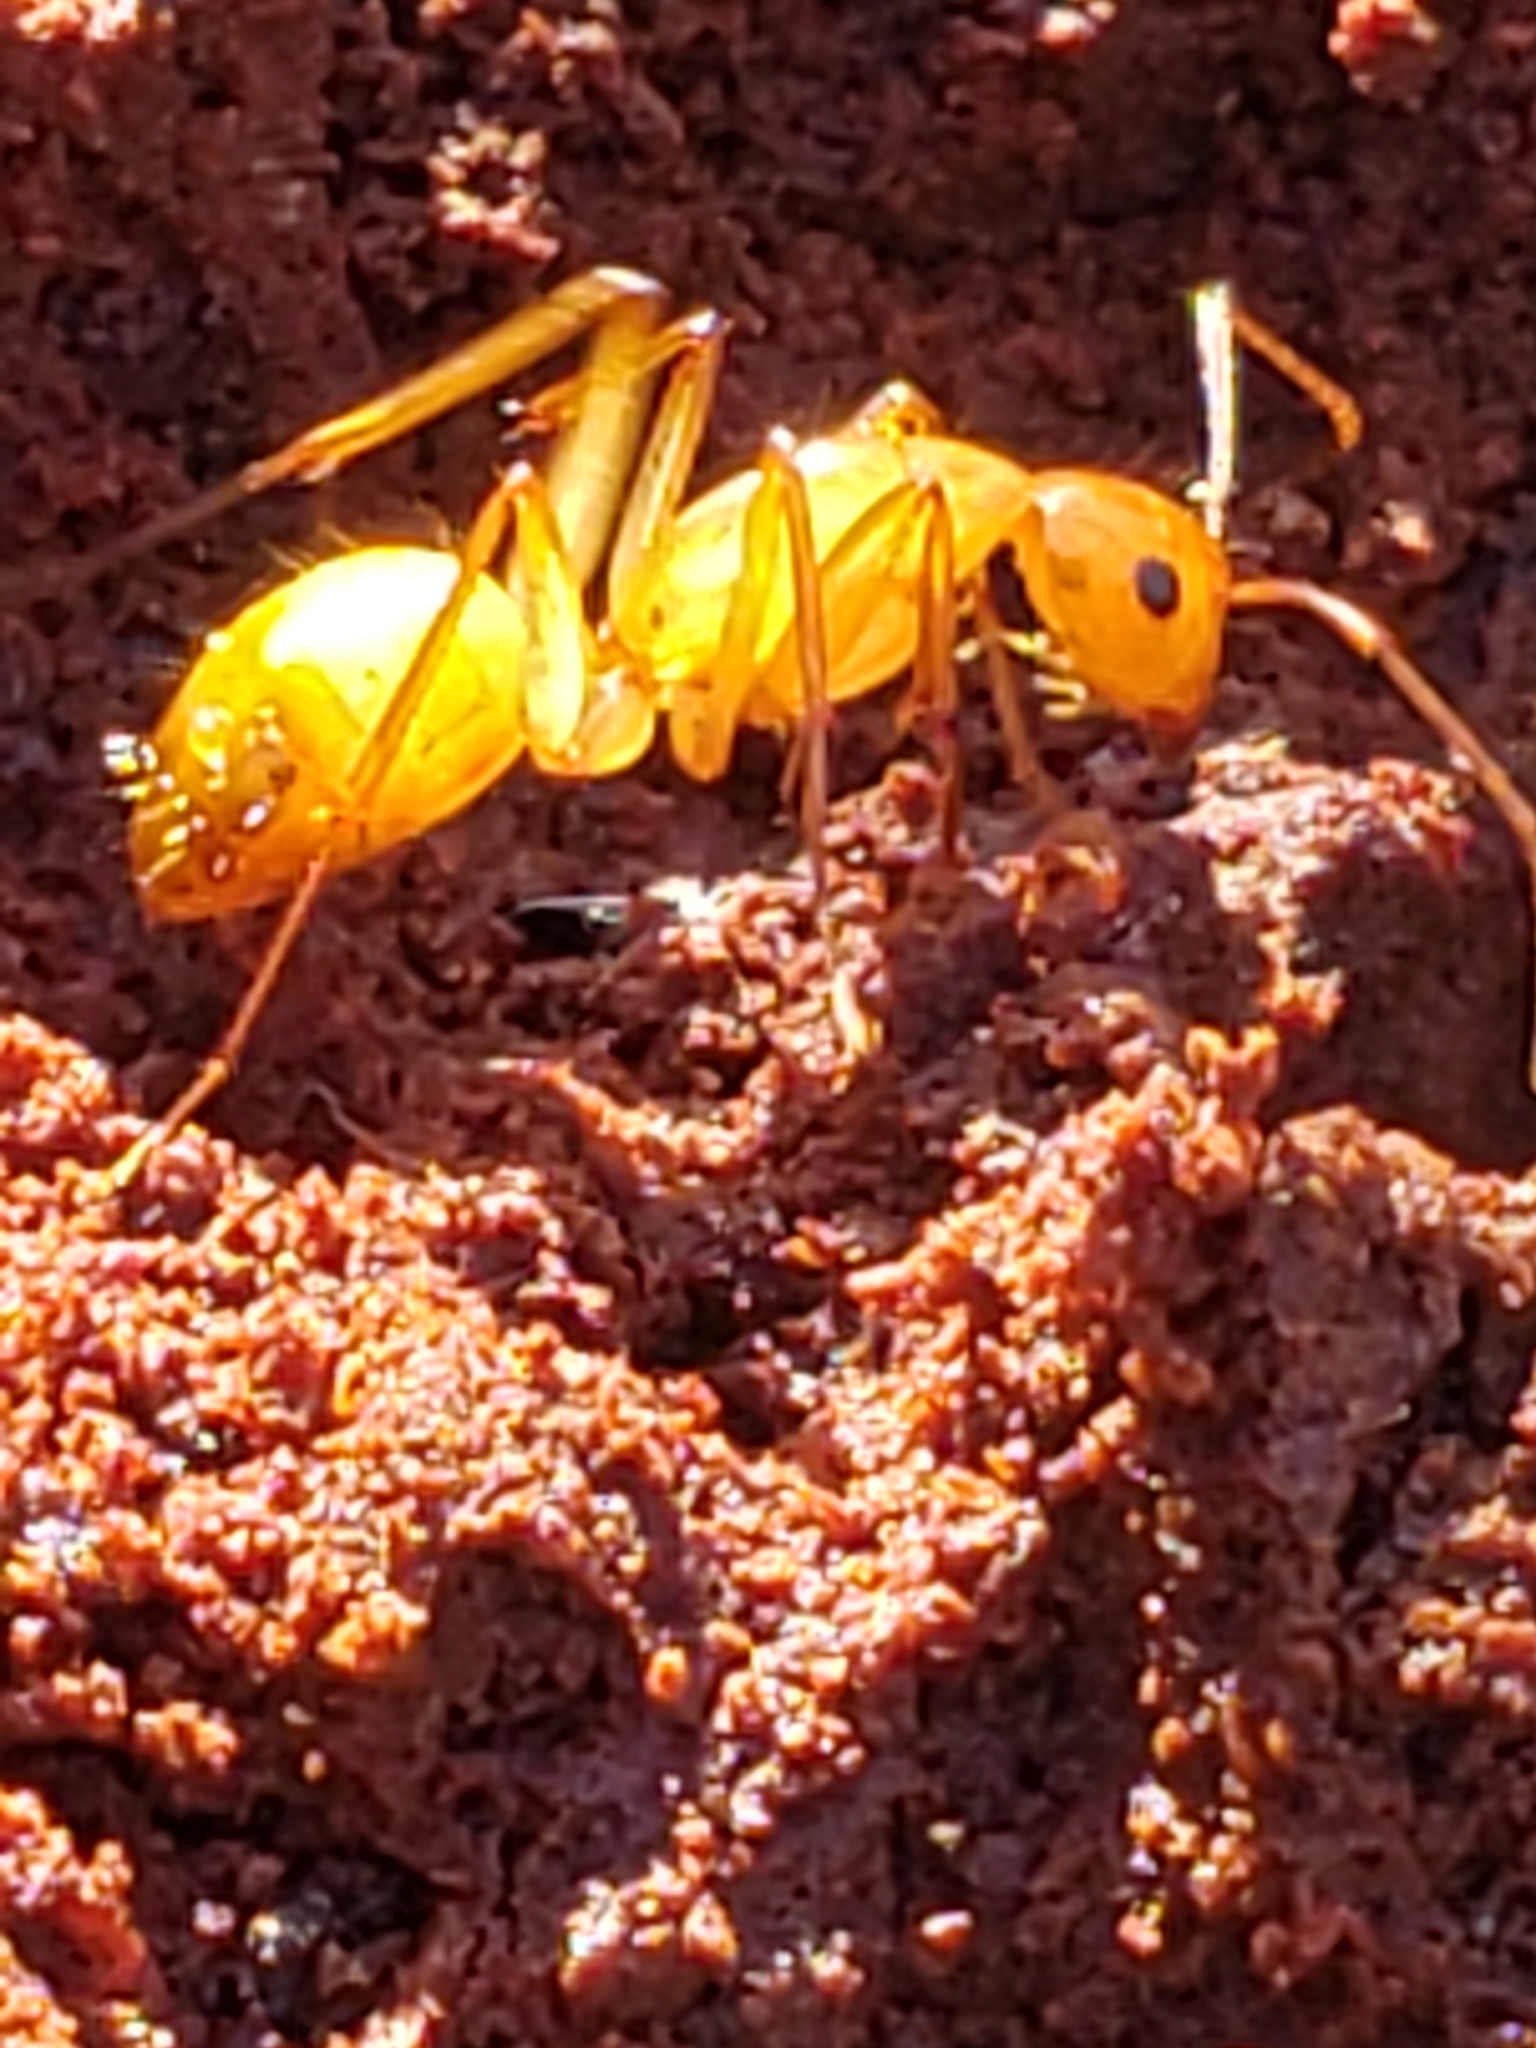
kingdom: Animalia
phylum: Arthropoda
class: Insecta
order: Hymenoptera
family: Formicidae
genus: Camponotus
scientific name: Camponotus castaneus
